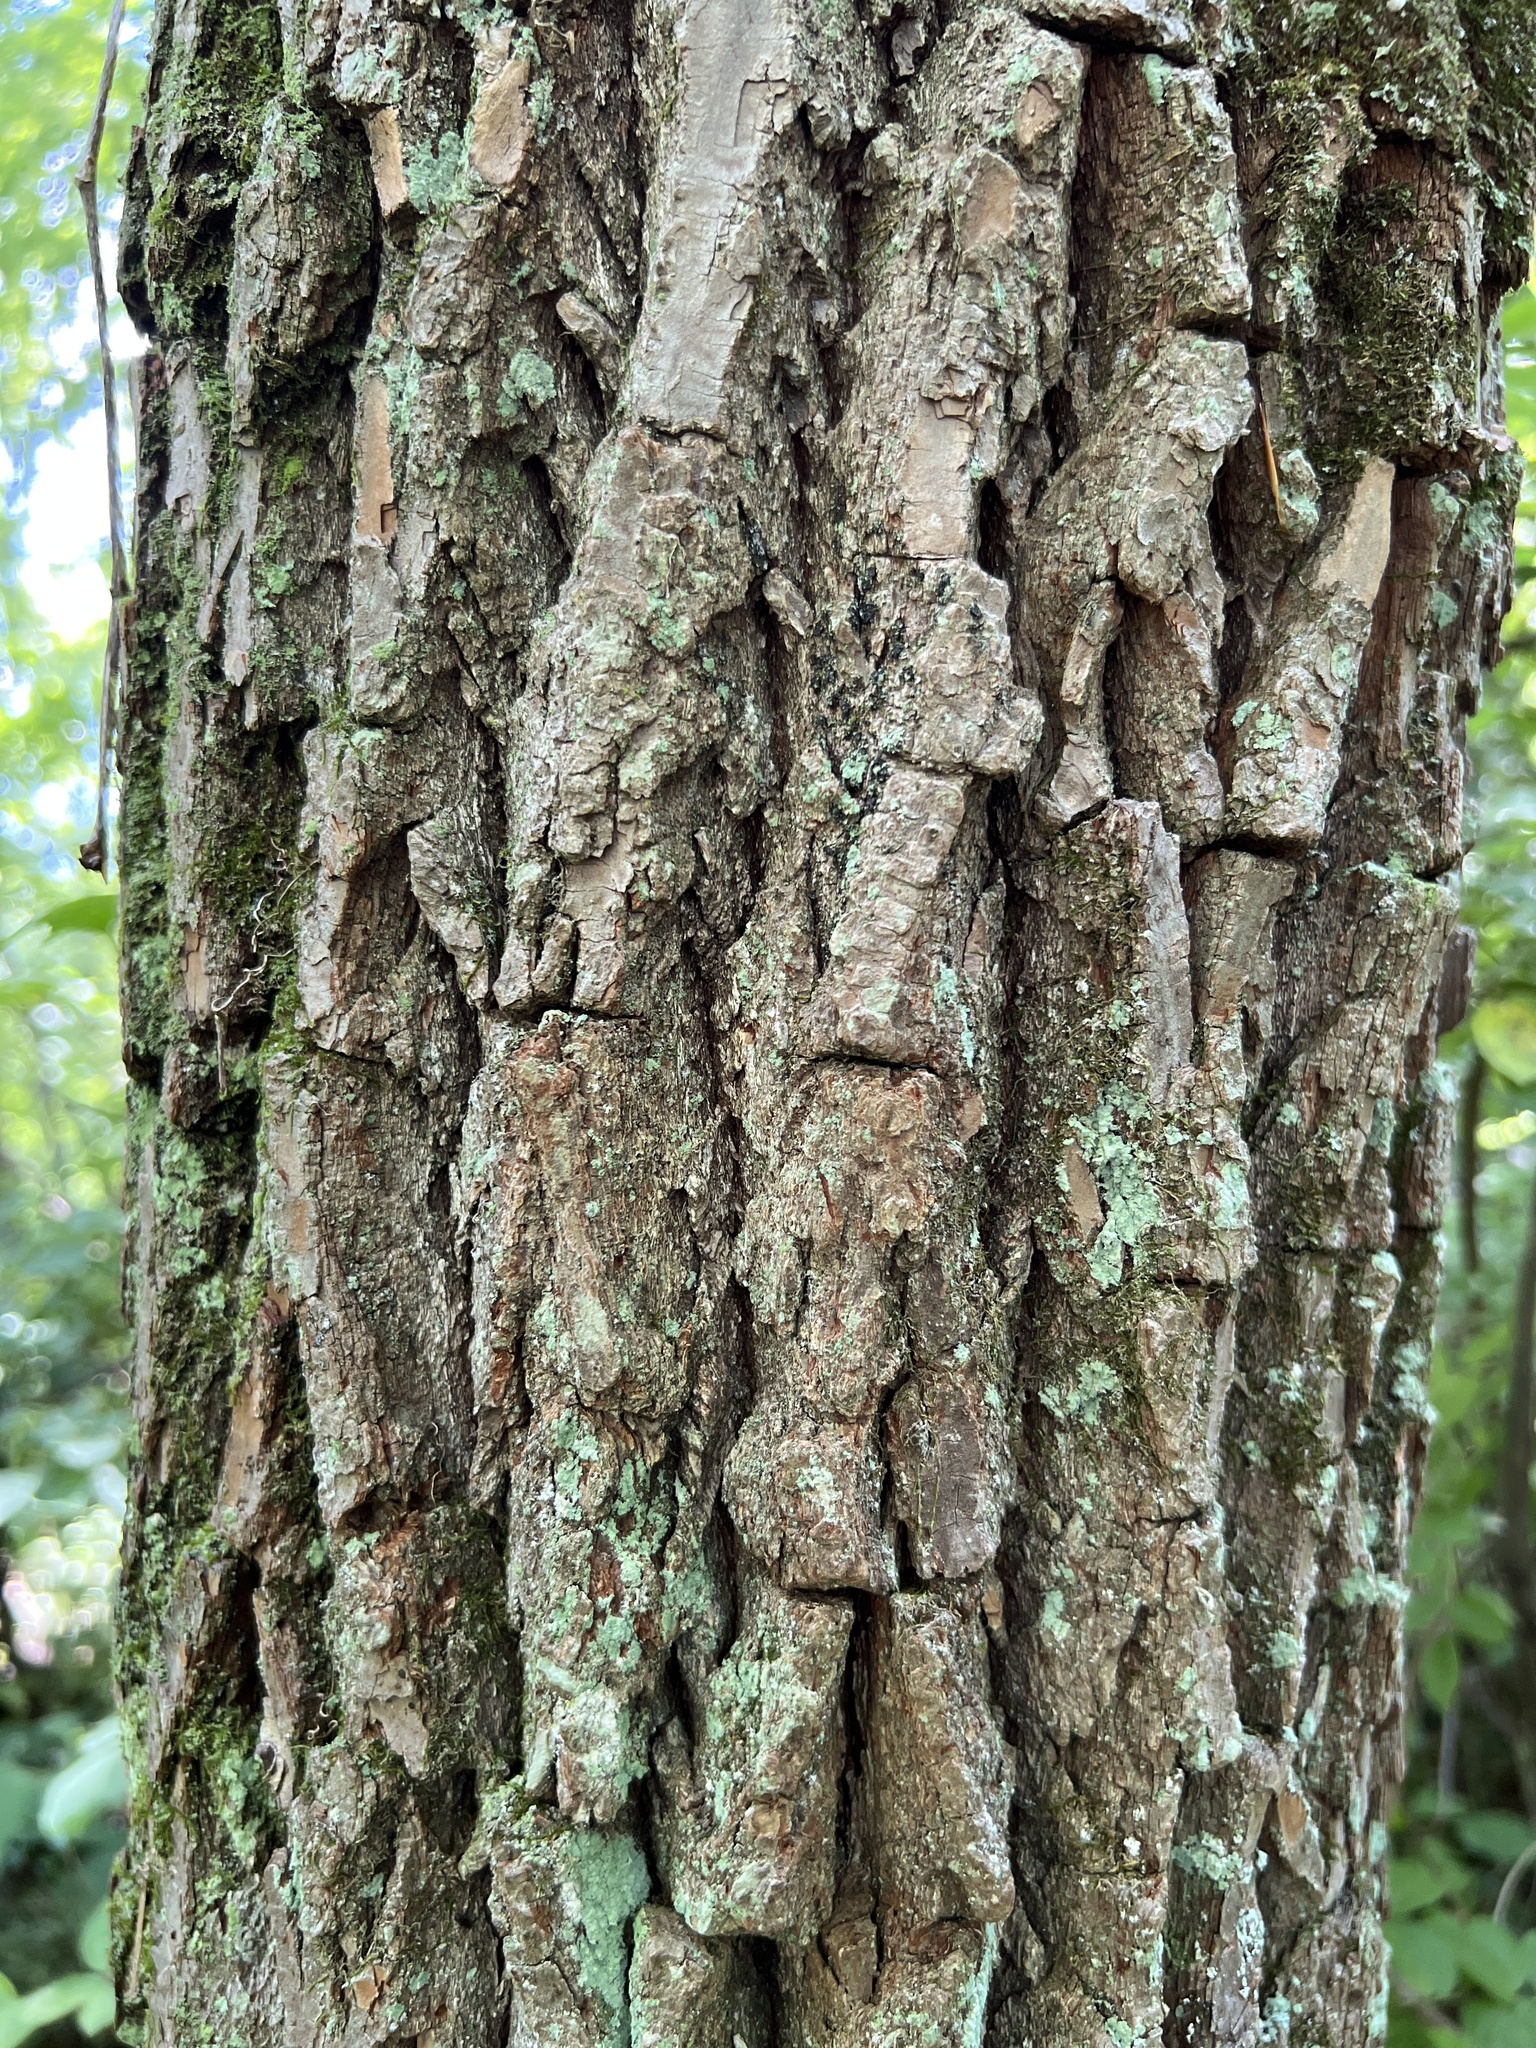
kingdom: Plantae
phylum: Tracheophyta
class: Magnoliopsida
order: Laurales
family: Lauraceae
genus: Sassafras
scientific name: Sassafras albidum
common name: Sassafras
